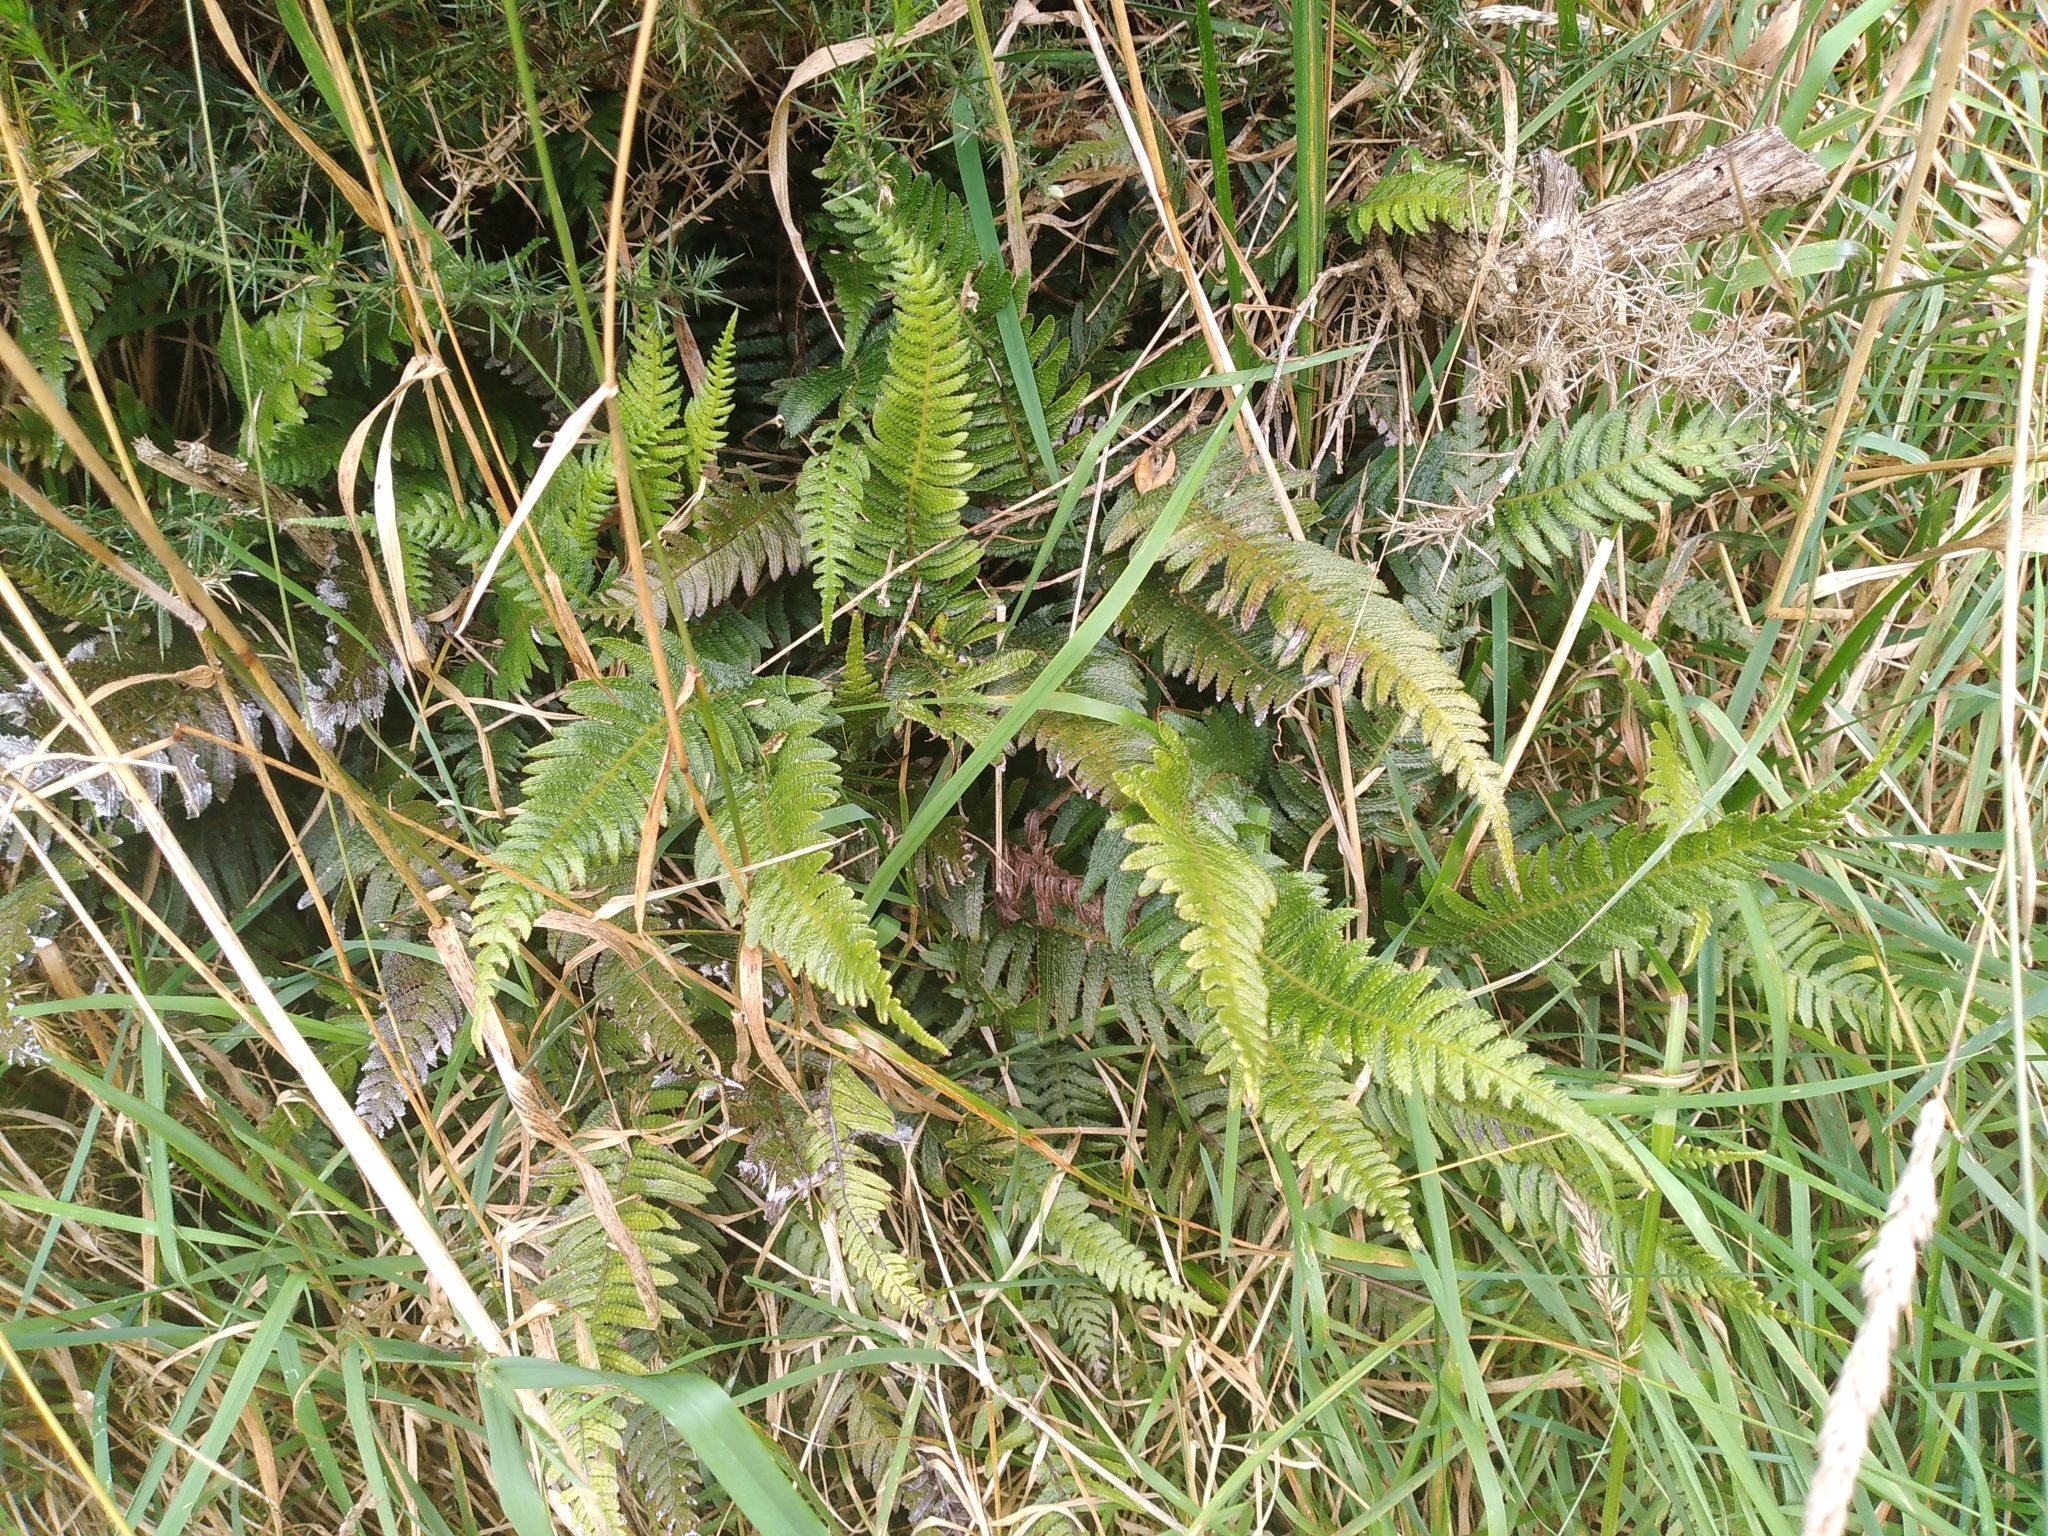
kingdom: Plantae
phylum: Tracheophyta
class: Polypodiopsida
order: Polypodiales
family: Blechnaceae
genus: Doodia
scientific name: Doodia australis
